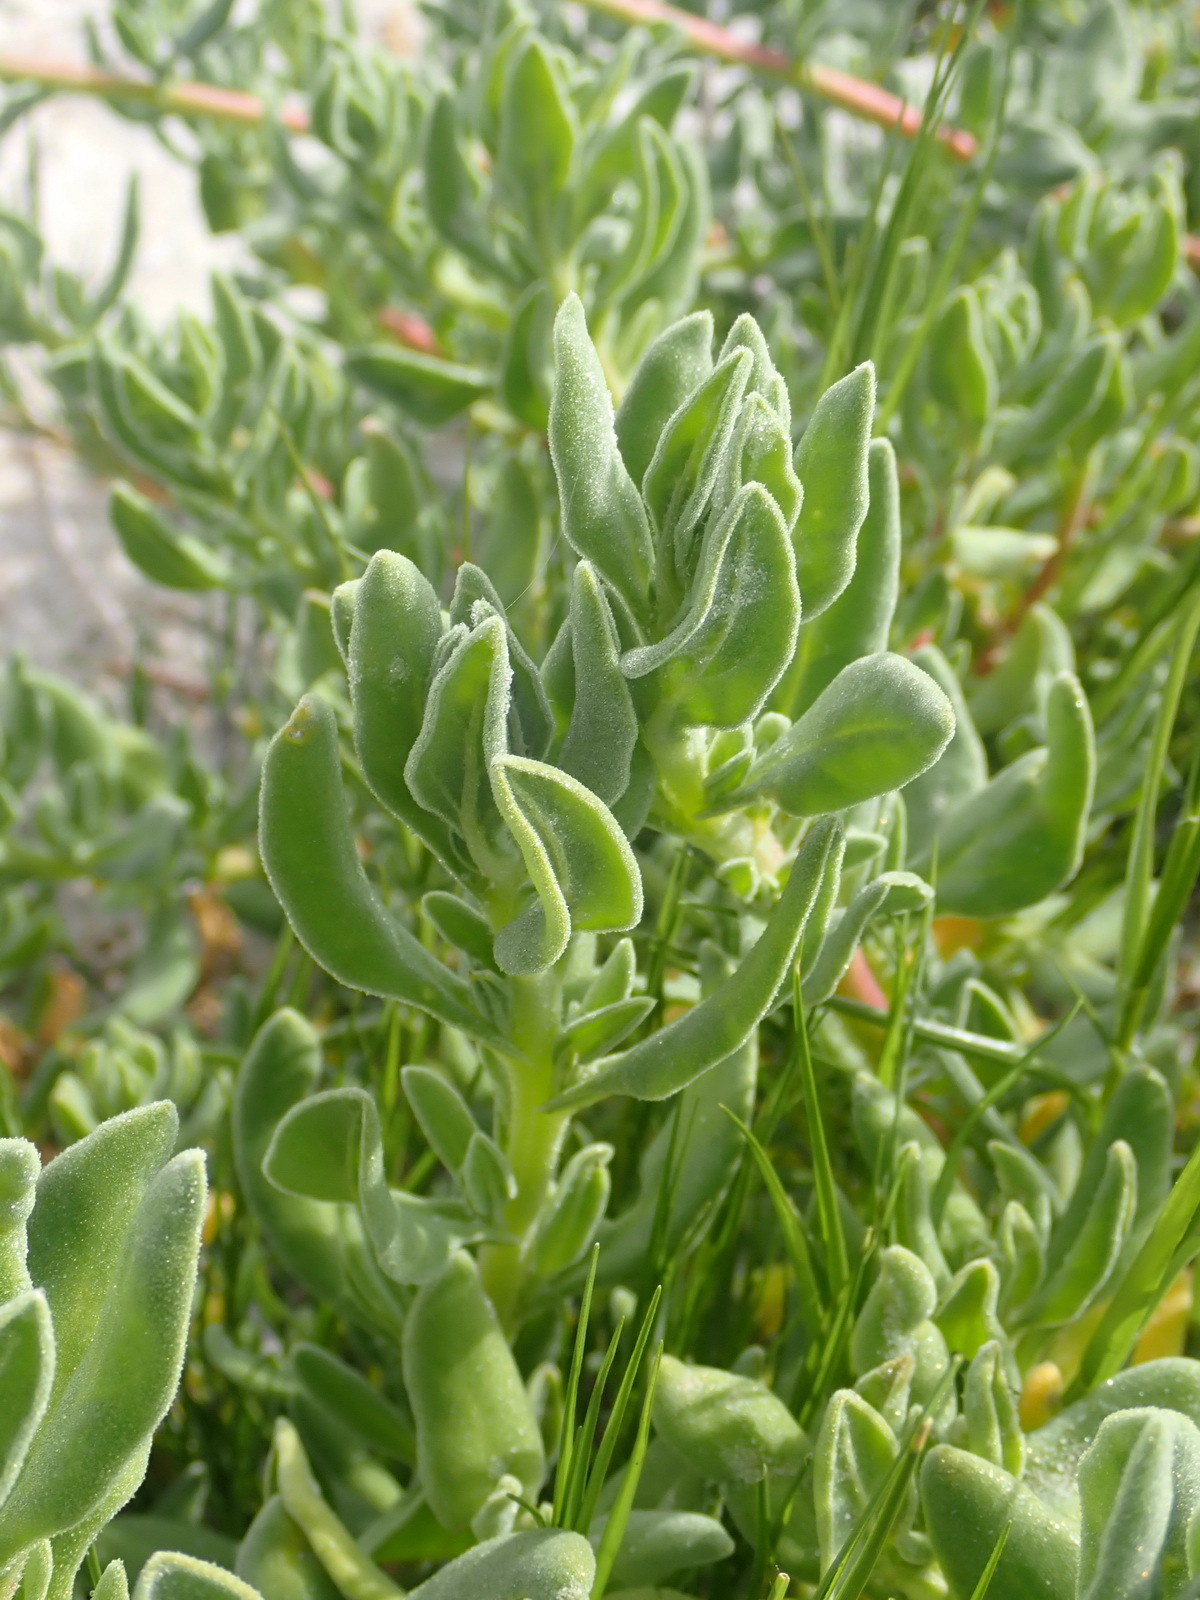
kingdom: Plantae
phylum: Tracheophyta
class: Magnoliopsida
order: Caryophyllales
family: Aizoaceae
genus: Tetragonia
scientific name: Tetragonia decumbens
